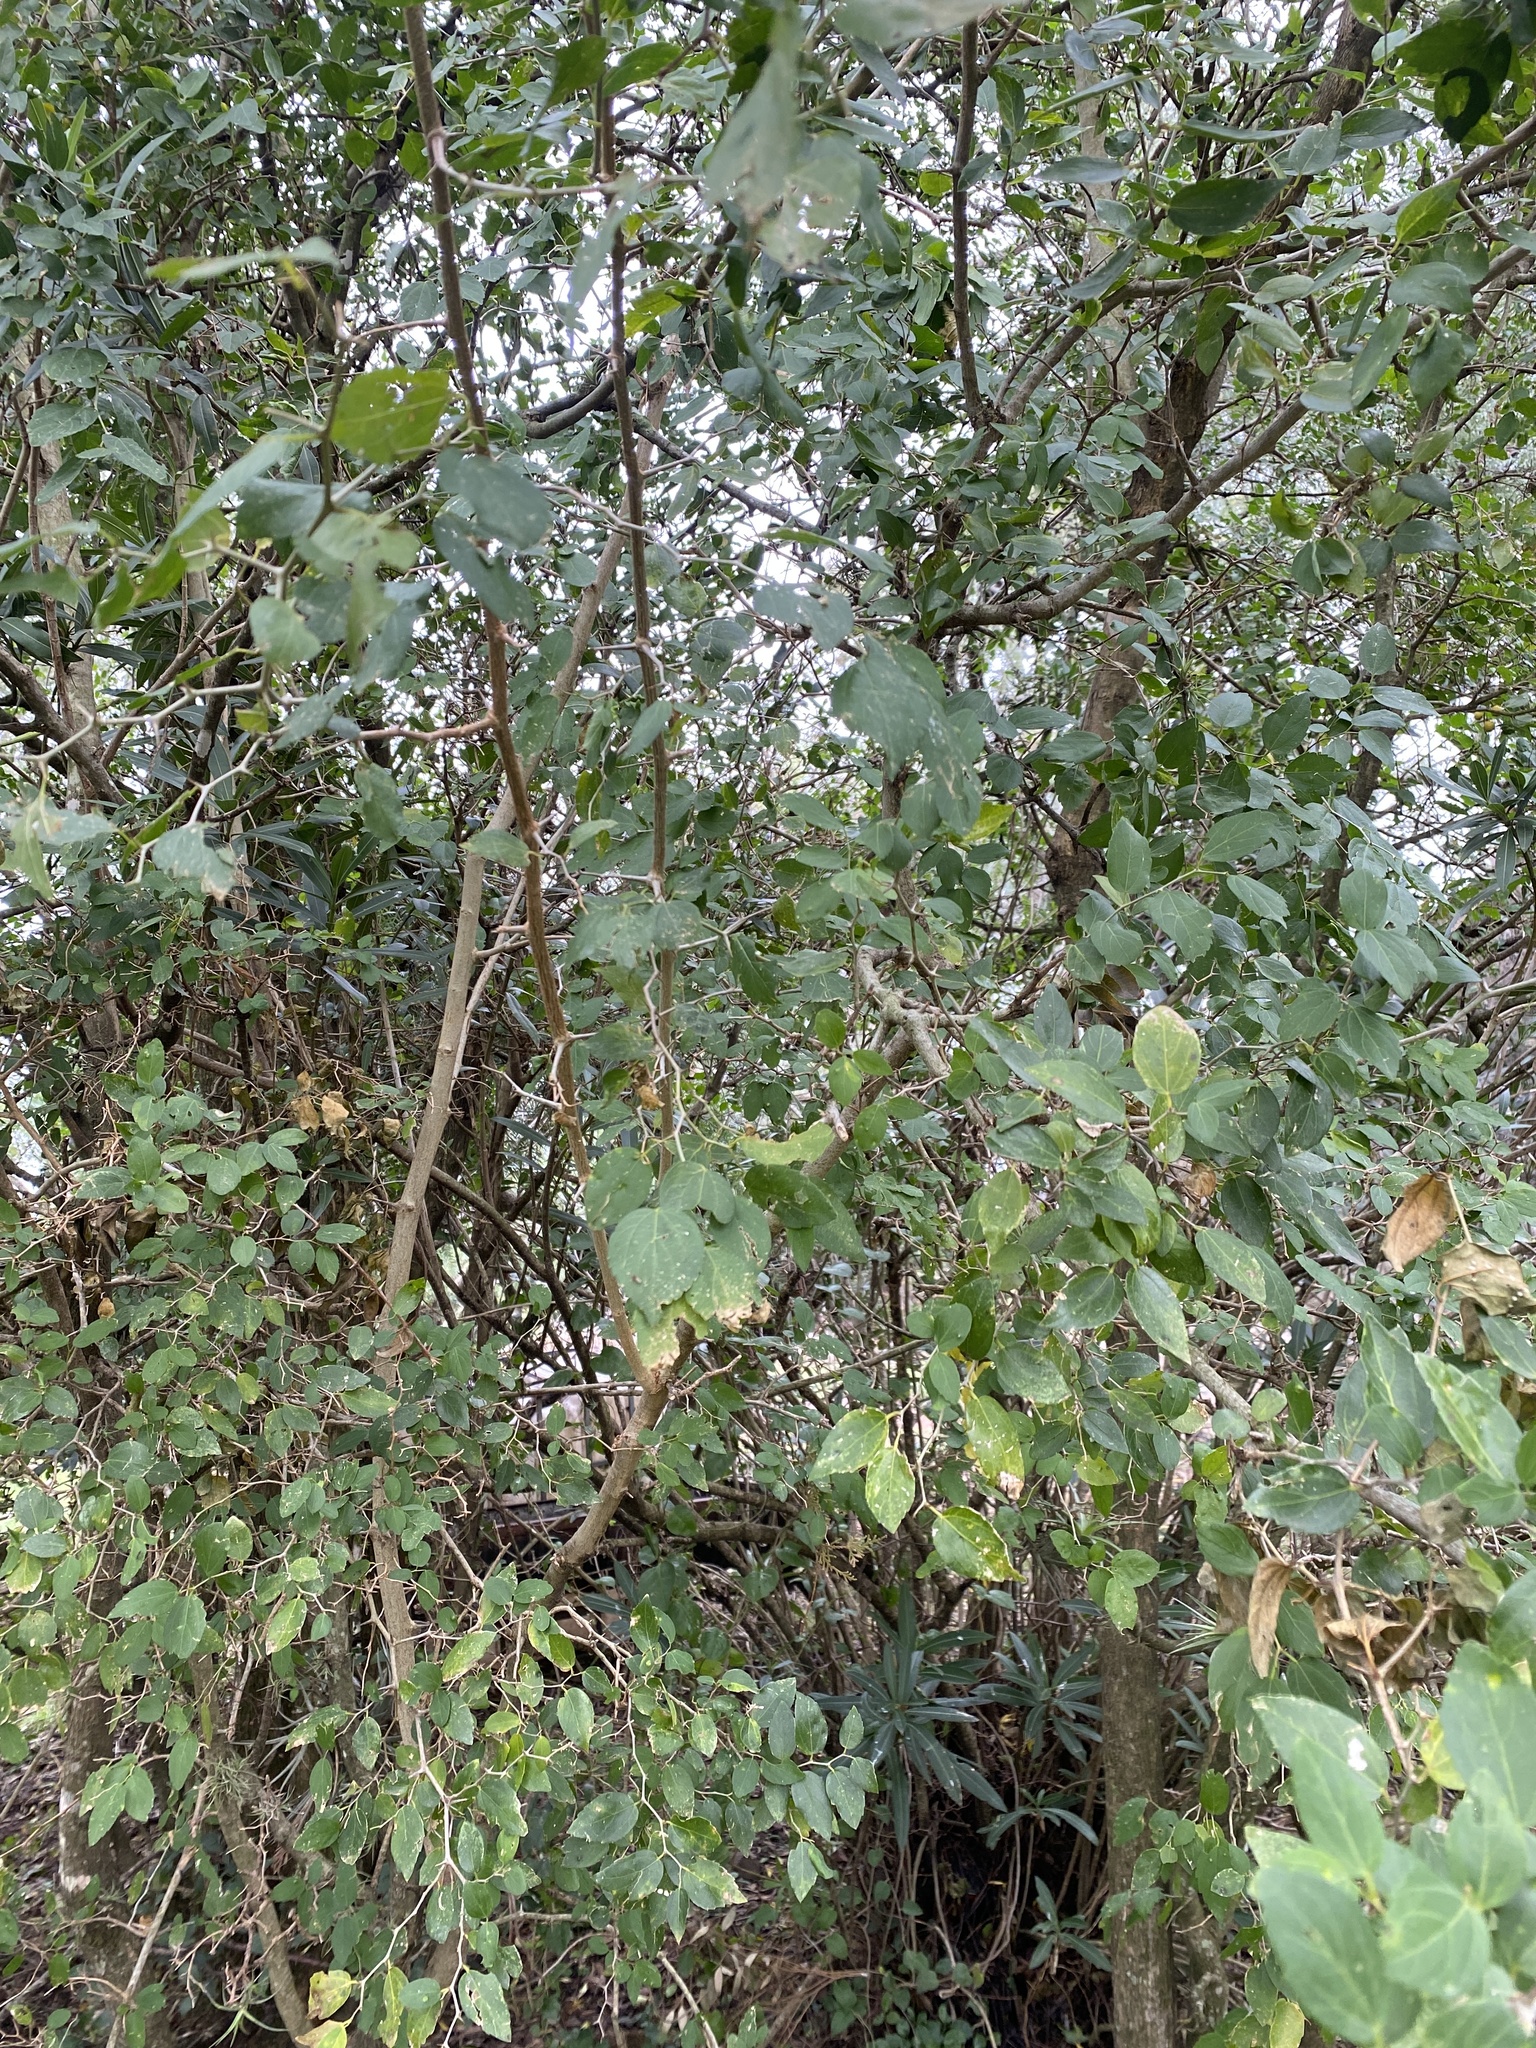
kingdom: Plantae
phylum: Tracheophyta
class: Magnoliopsida
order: Rosales
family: Cannabaceae
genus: Celtis
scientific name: Celtis tala
